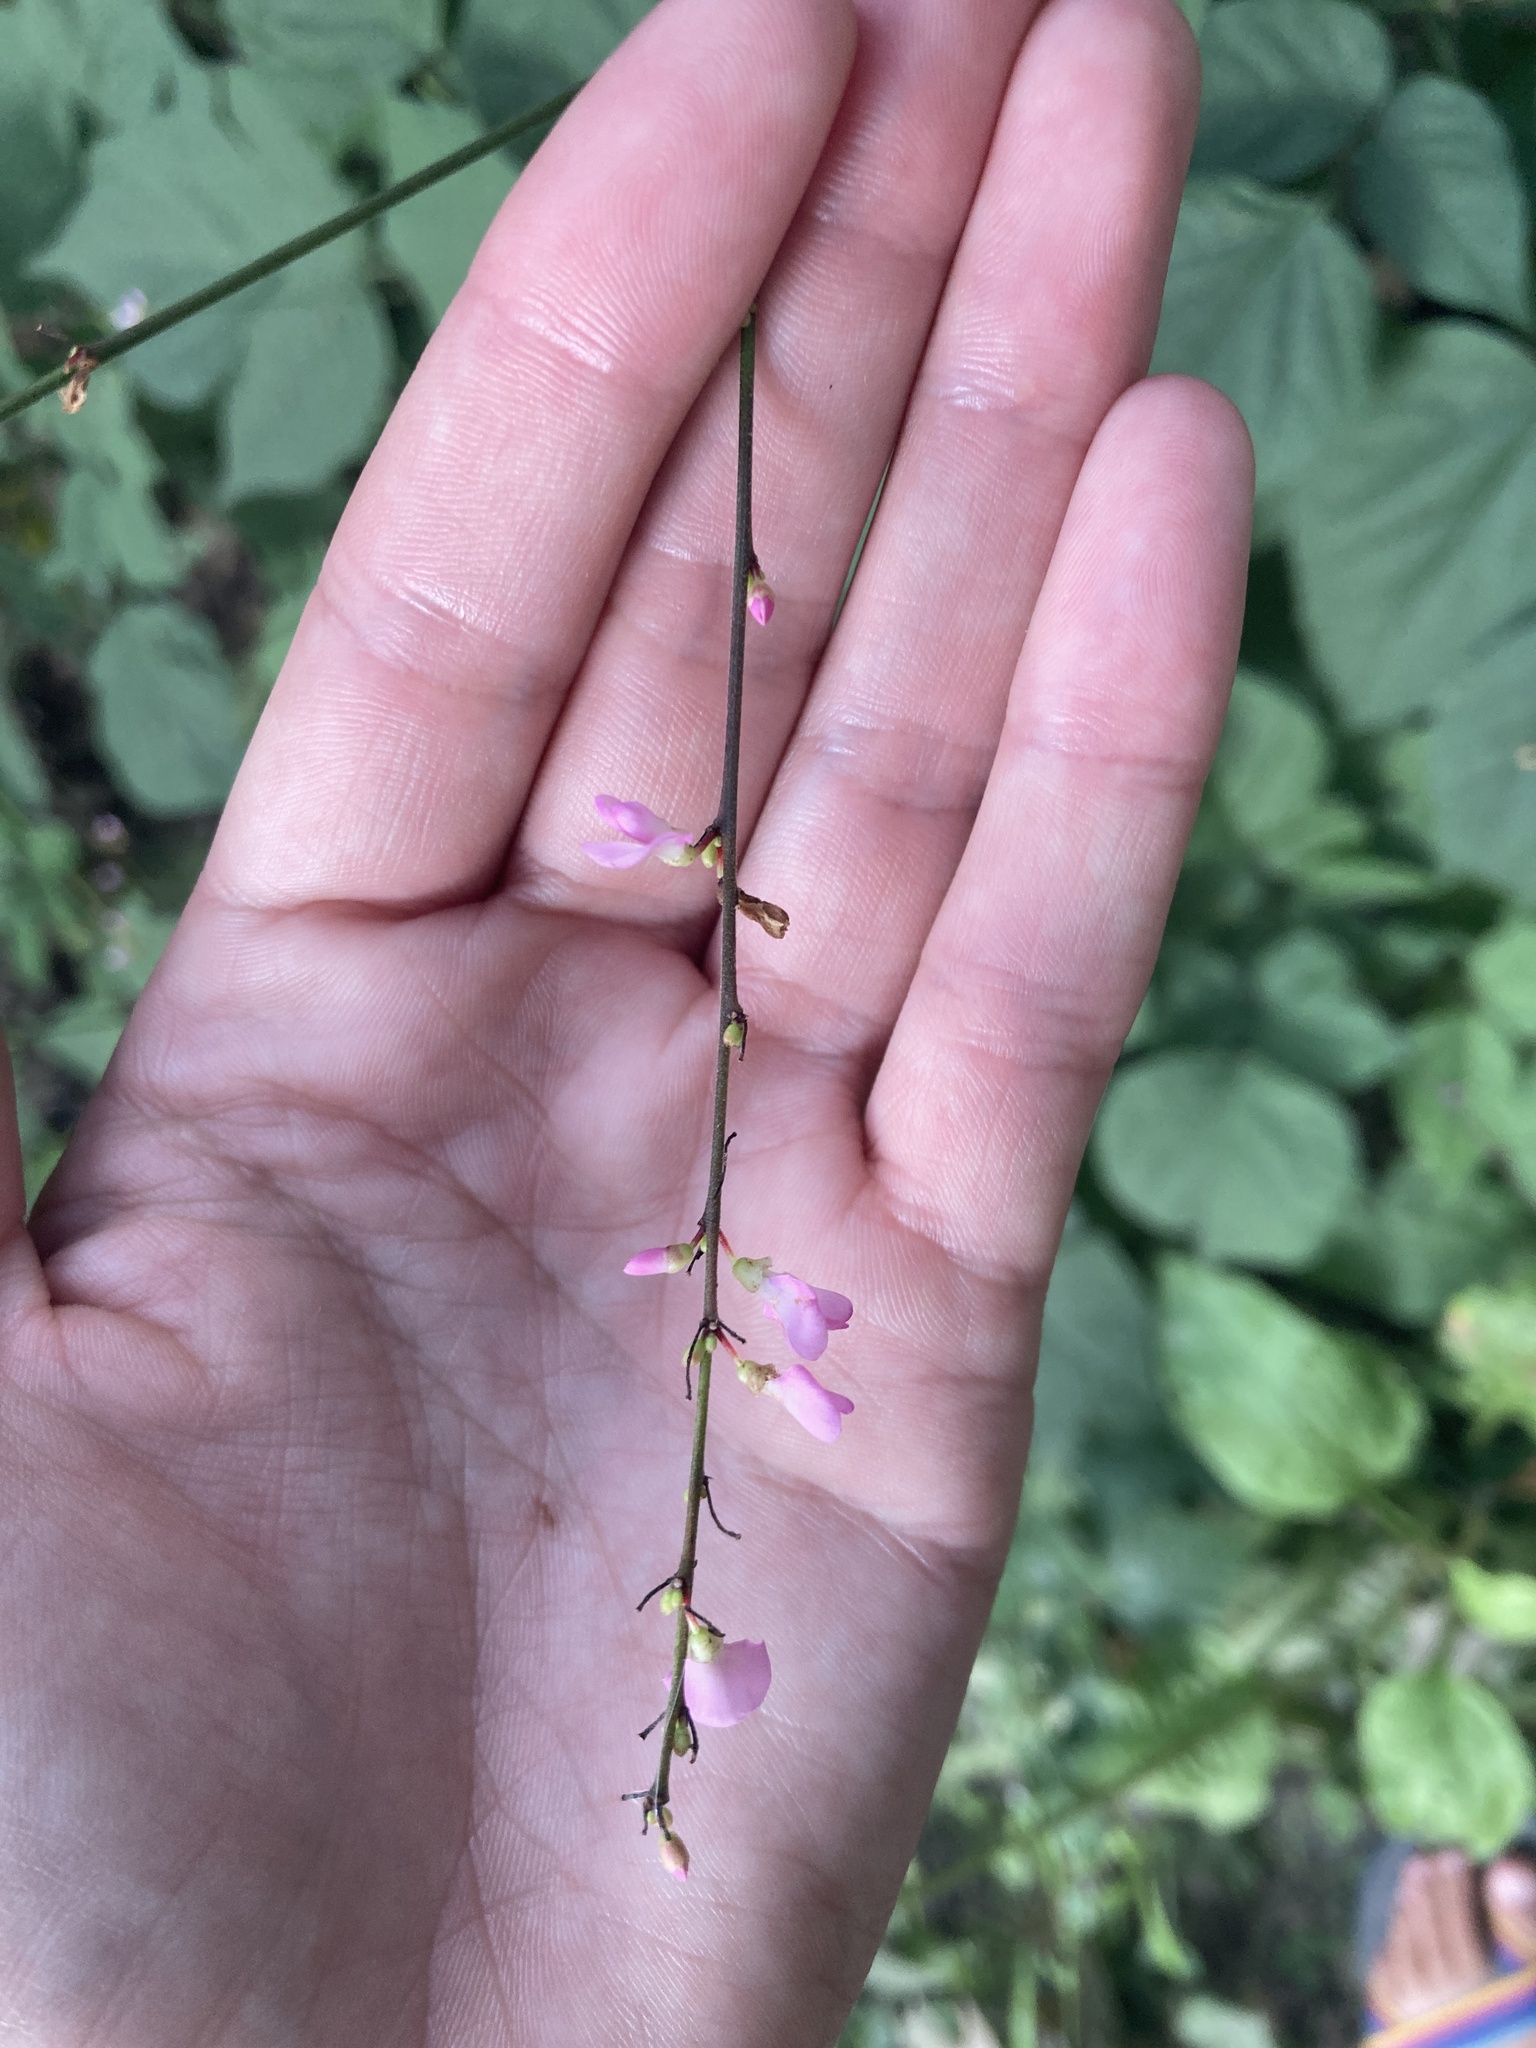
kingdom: Plantae
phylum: Tracheophyta
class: Magnoliopsida
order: Fabales
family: Fabaceae
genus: Hylodesmum
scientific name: Hylodesmum glutinosum
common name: Clustered-leaved tick-trefoil
